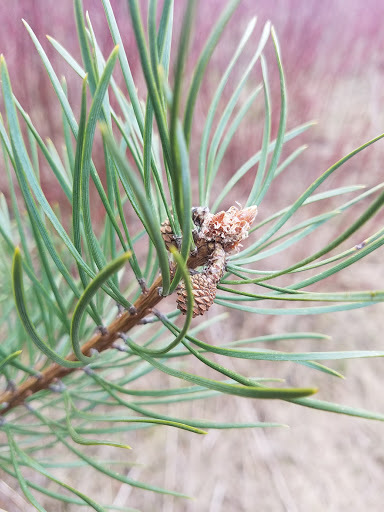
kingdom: Plantae
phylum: Tracheophyta
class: Pinopsida
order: Pinales
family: Pinaceae
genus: Pinus
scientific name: Pinus sylvestris
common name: Scots pine
